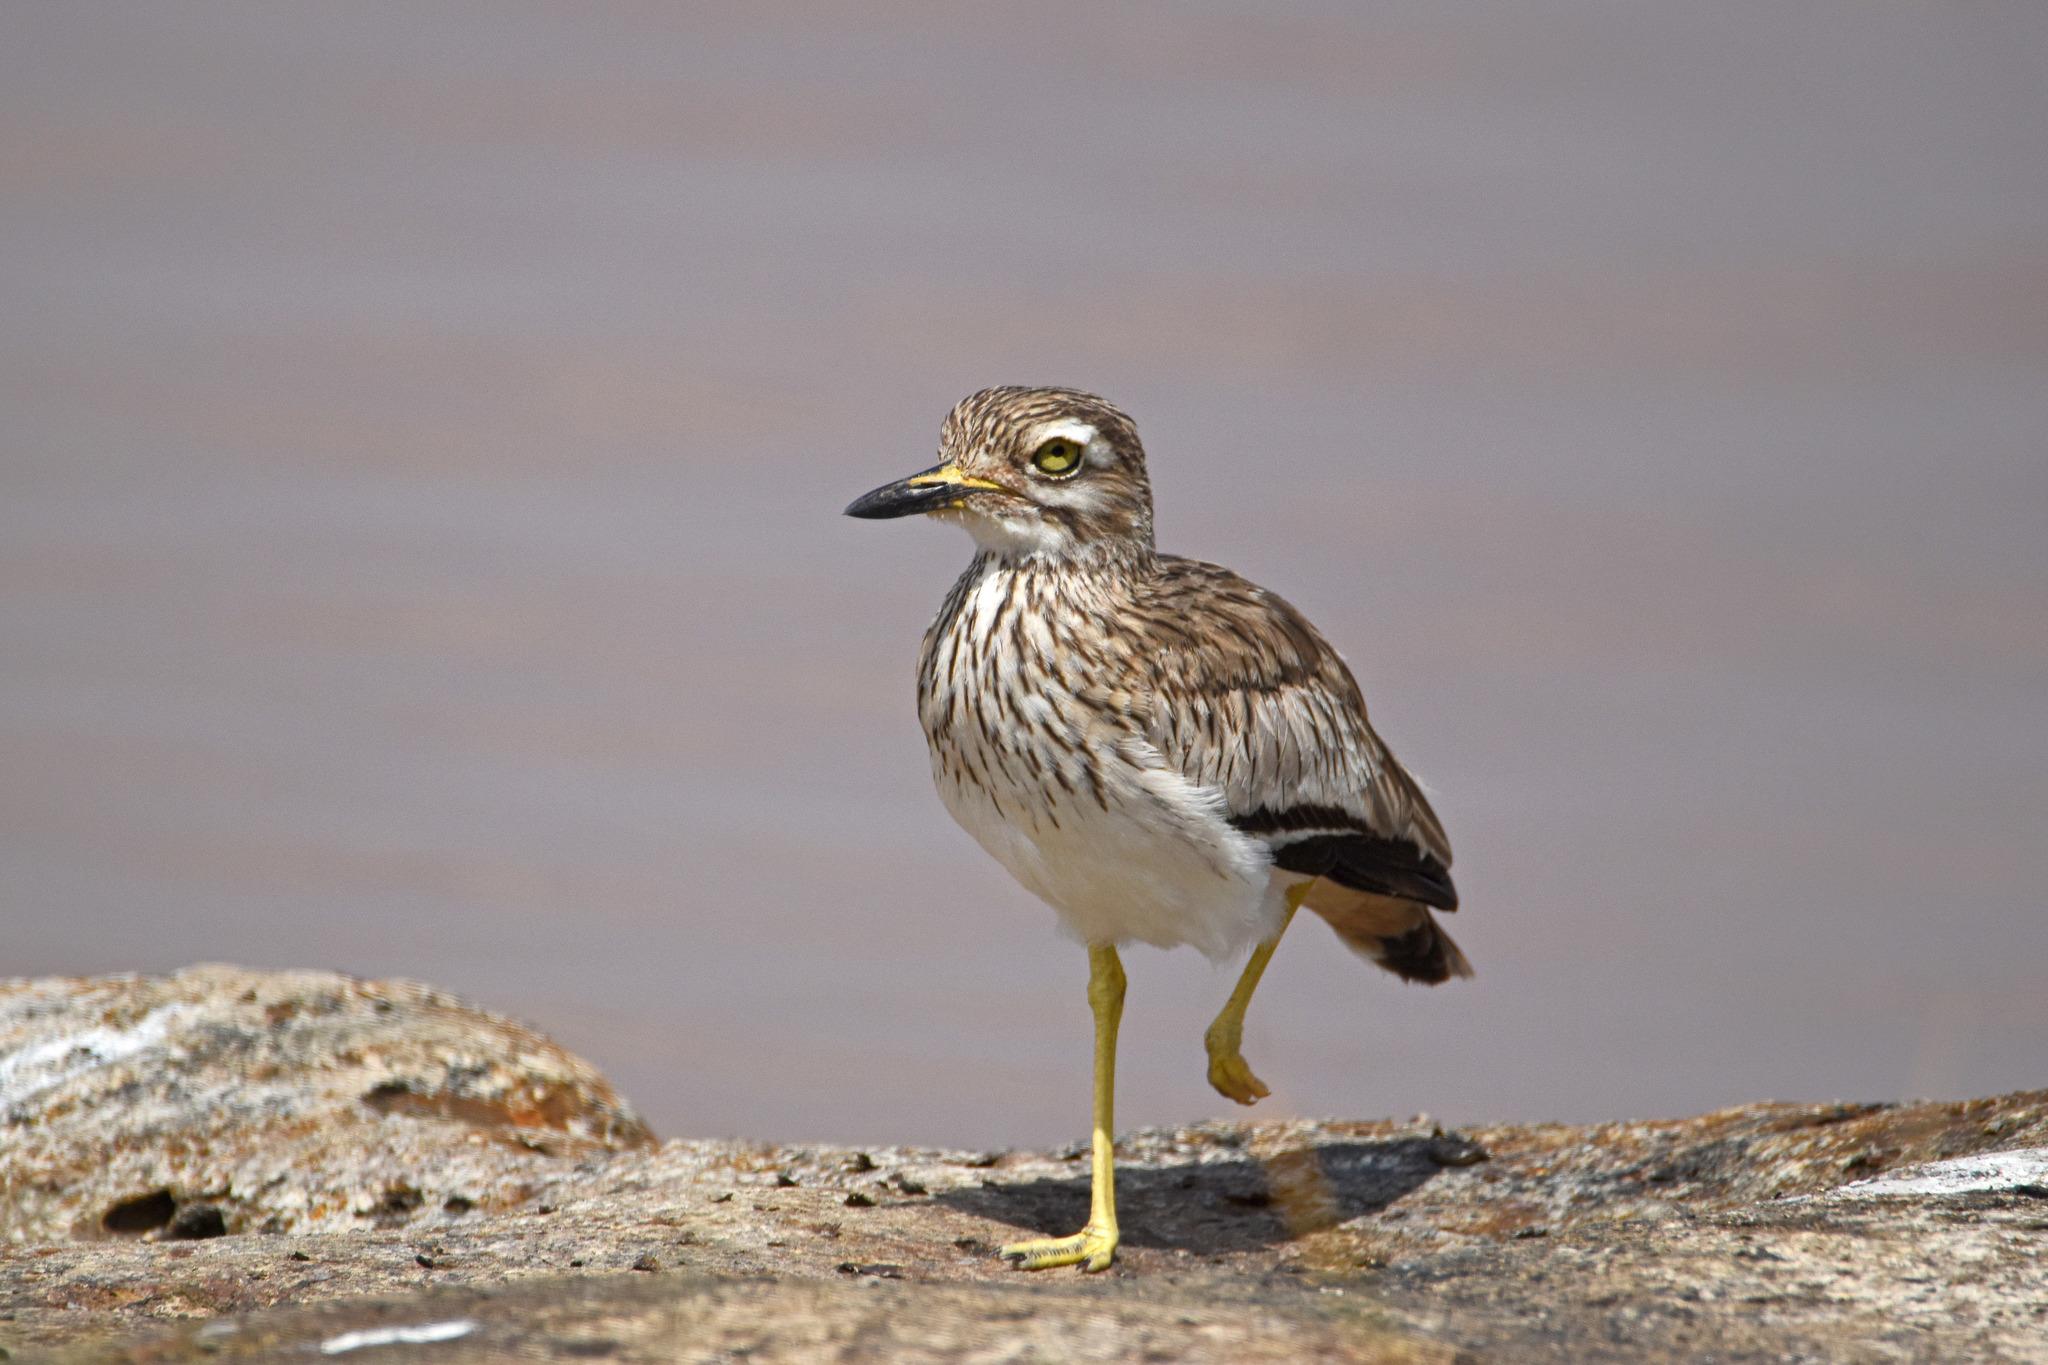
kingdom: Animalia
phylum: Chordata
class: Aves
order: Charadriiformes
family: Burhinidae
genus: Burhinus
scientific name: Burhinus senegalensis
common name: Senegal thick-knee
